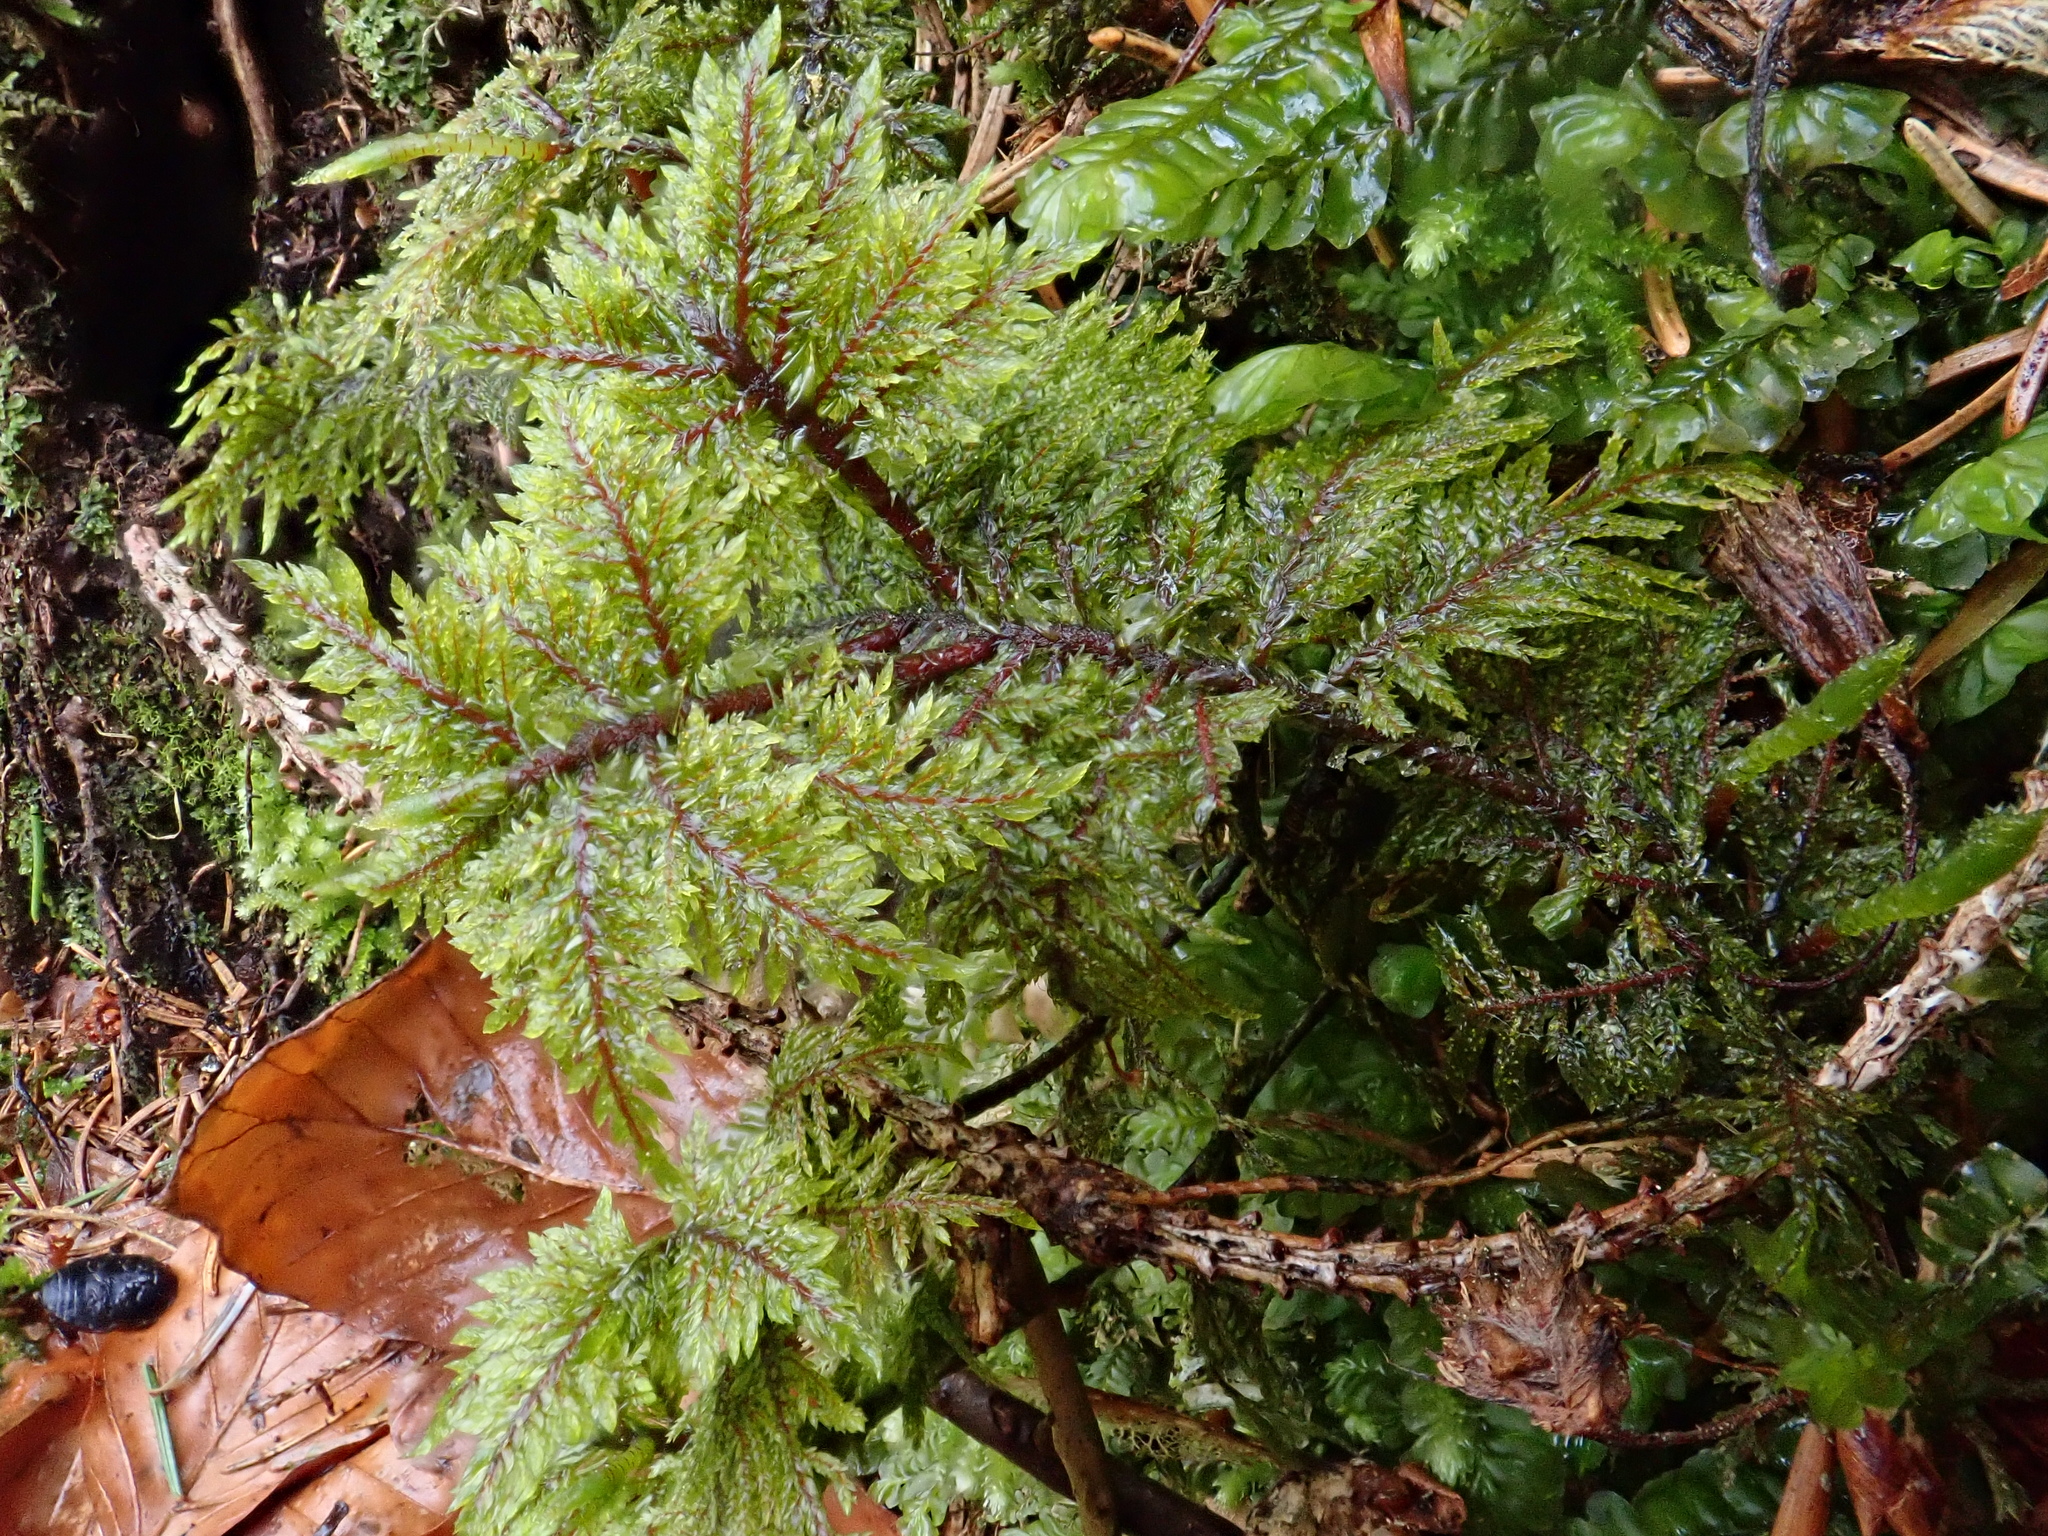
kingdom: Plantae
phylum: Bryophyta
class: Bryopsida
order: Hypnales
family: Hylocomiaceae
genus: Hylocomium
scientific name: Hylocomium splendens
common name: Stairstep moss
